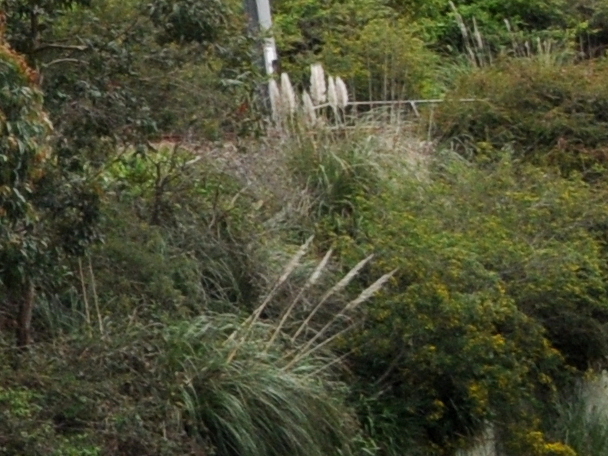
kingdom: Plantae
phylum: Tracheophyta
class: Liliopsida
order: Poales
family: Poaceae
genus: Cortaderia
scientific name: Cortaderia selloana
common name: Uruguayan pampas grass
